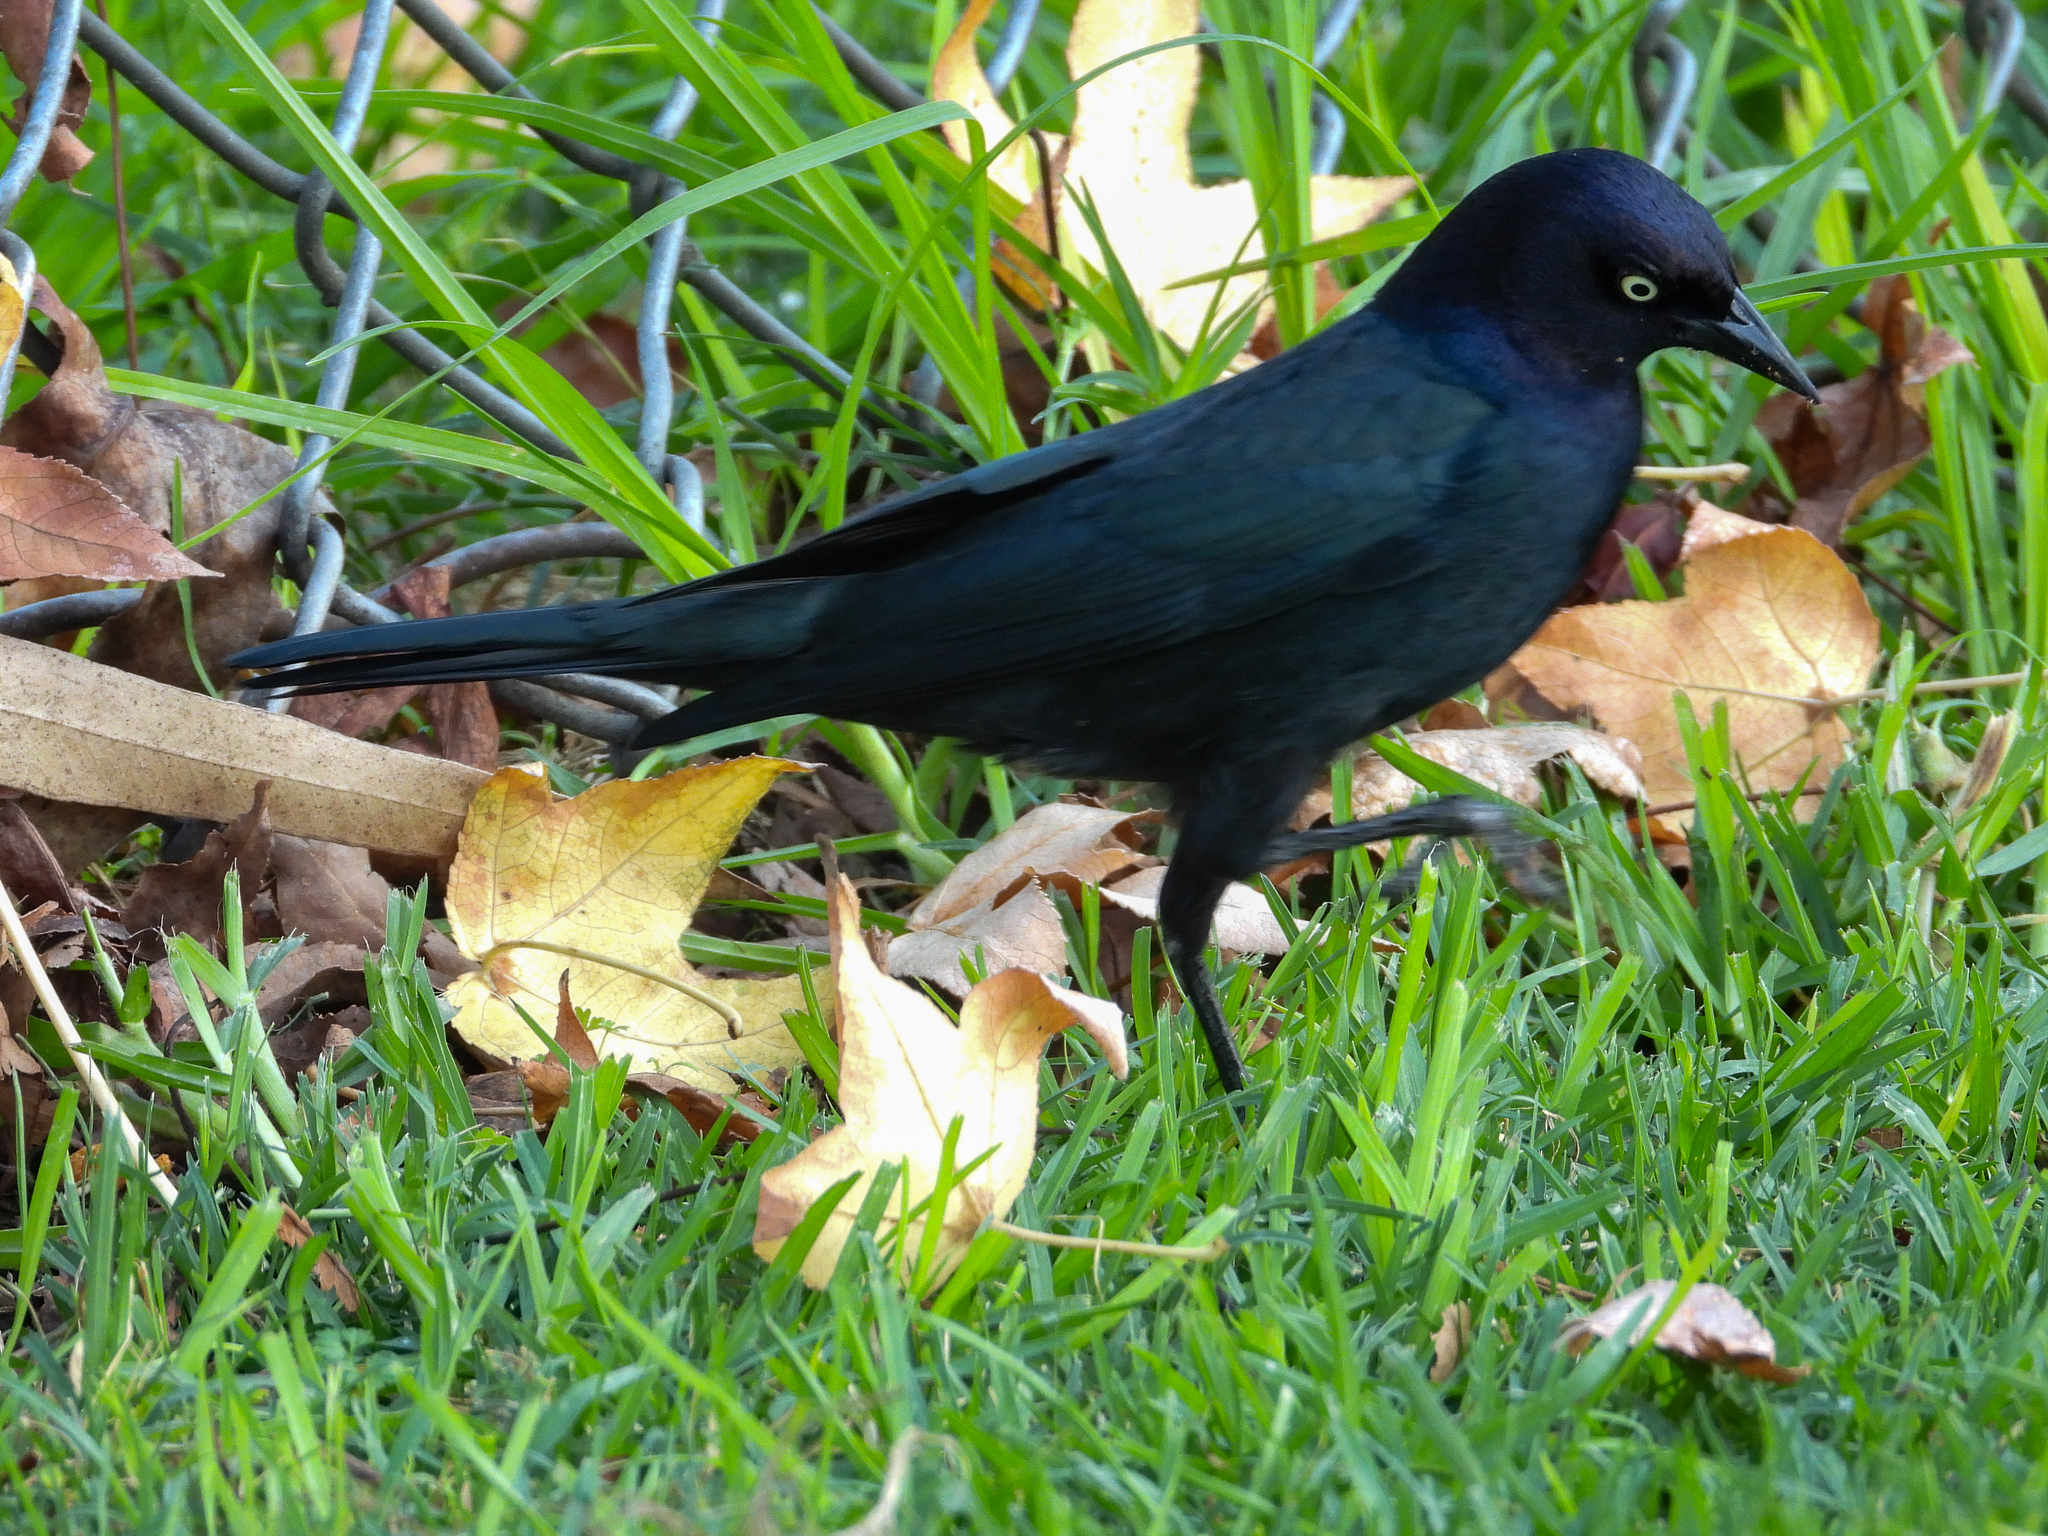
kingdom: Animalia
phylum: Chordata
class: Aves
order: Passeriformes
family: Icteridae
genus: Euphagus
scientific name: Euphagus cyanocephalus
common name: Brewer's blackbird
